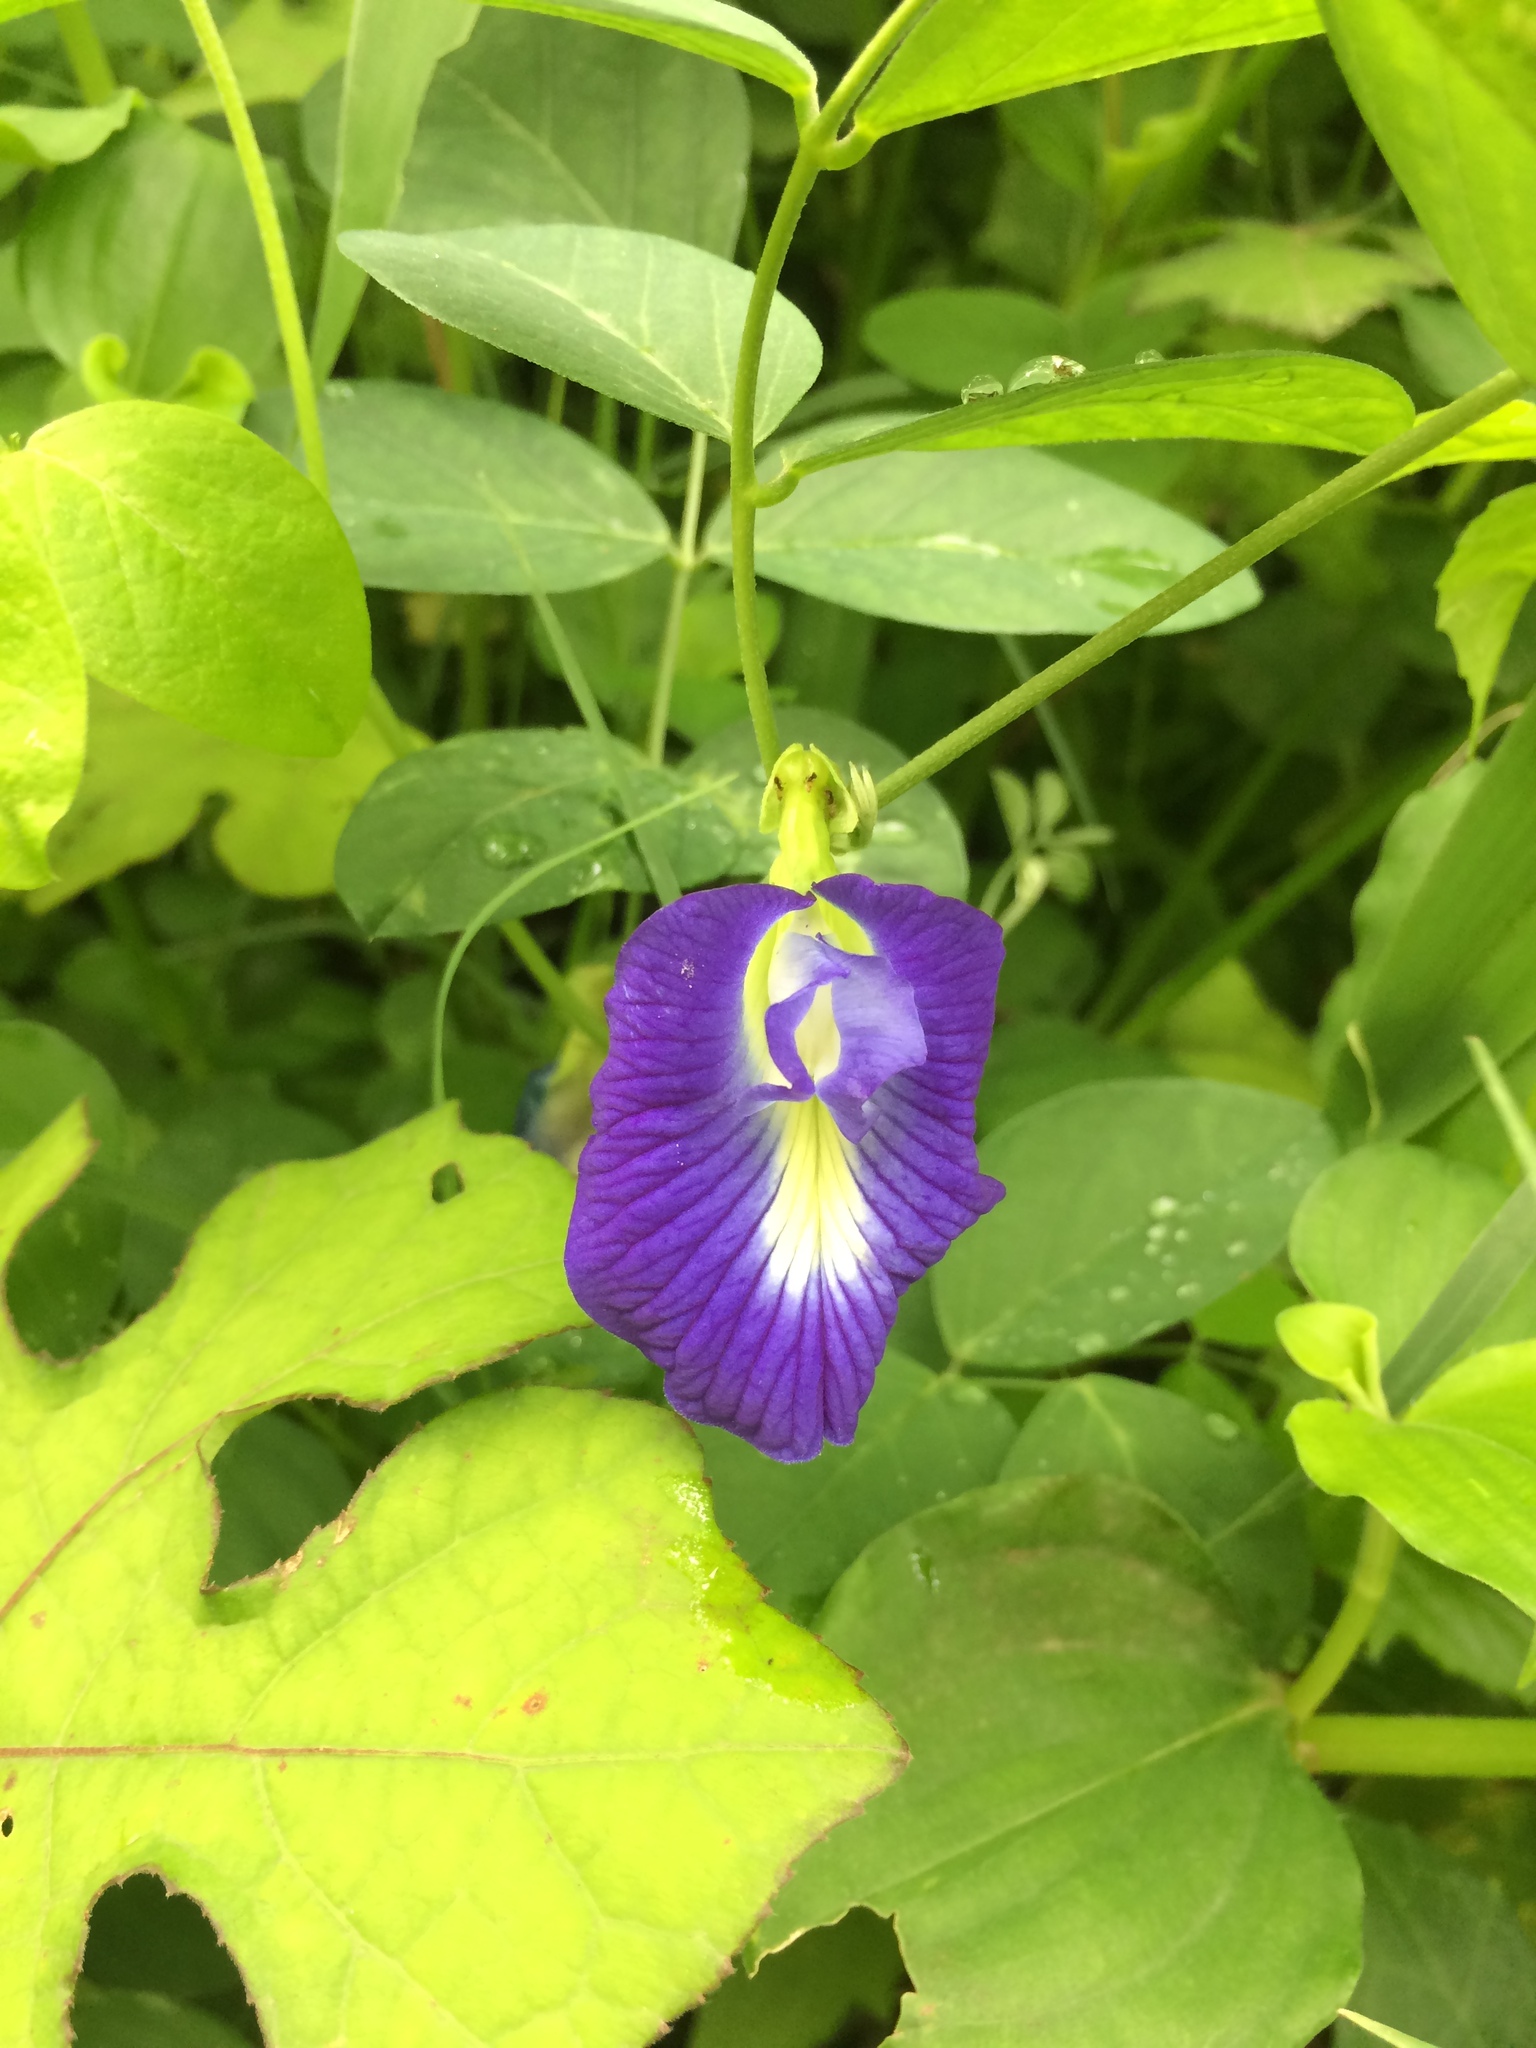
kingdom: Plantae
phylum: Tracheophyta
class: Magnoliopsida
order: Fabales
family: Fabaceae
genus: Clitoria
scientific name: Clitoria ternatea
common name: Asian pigeonwings
